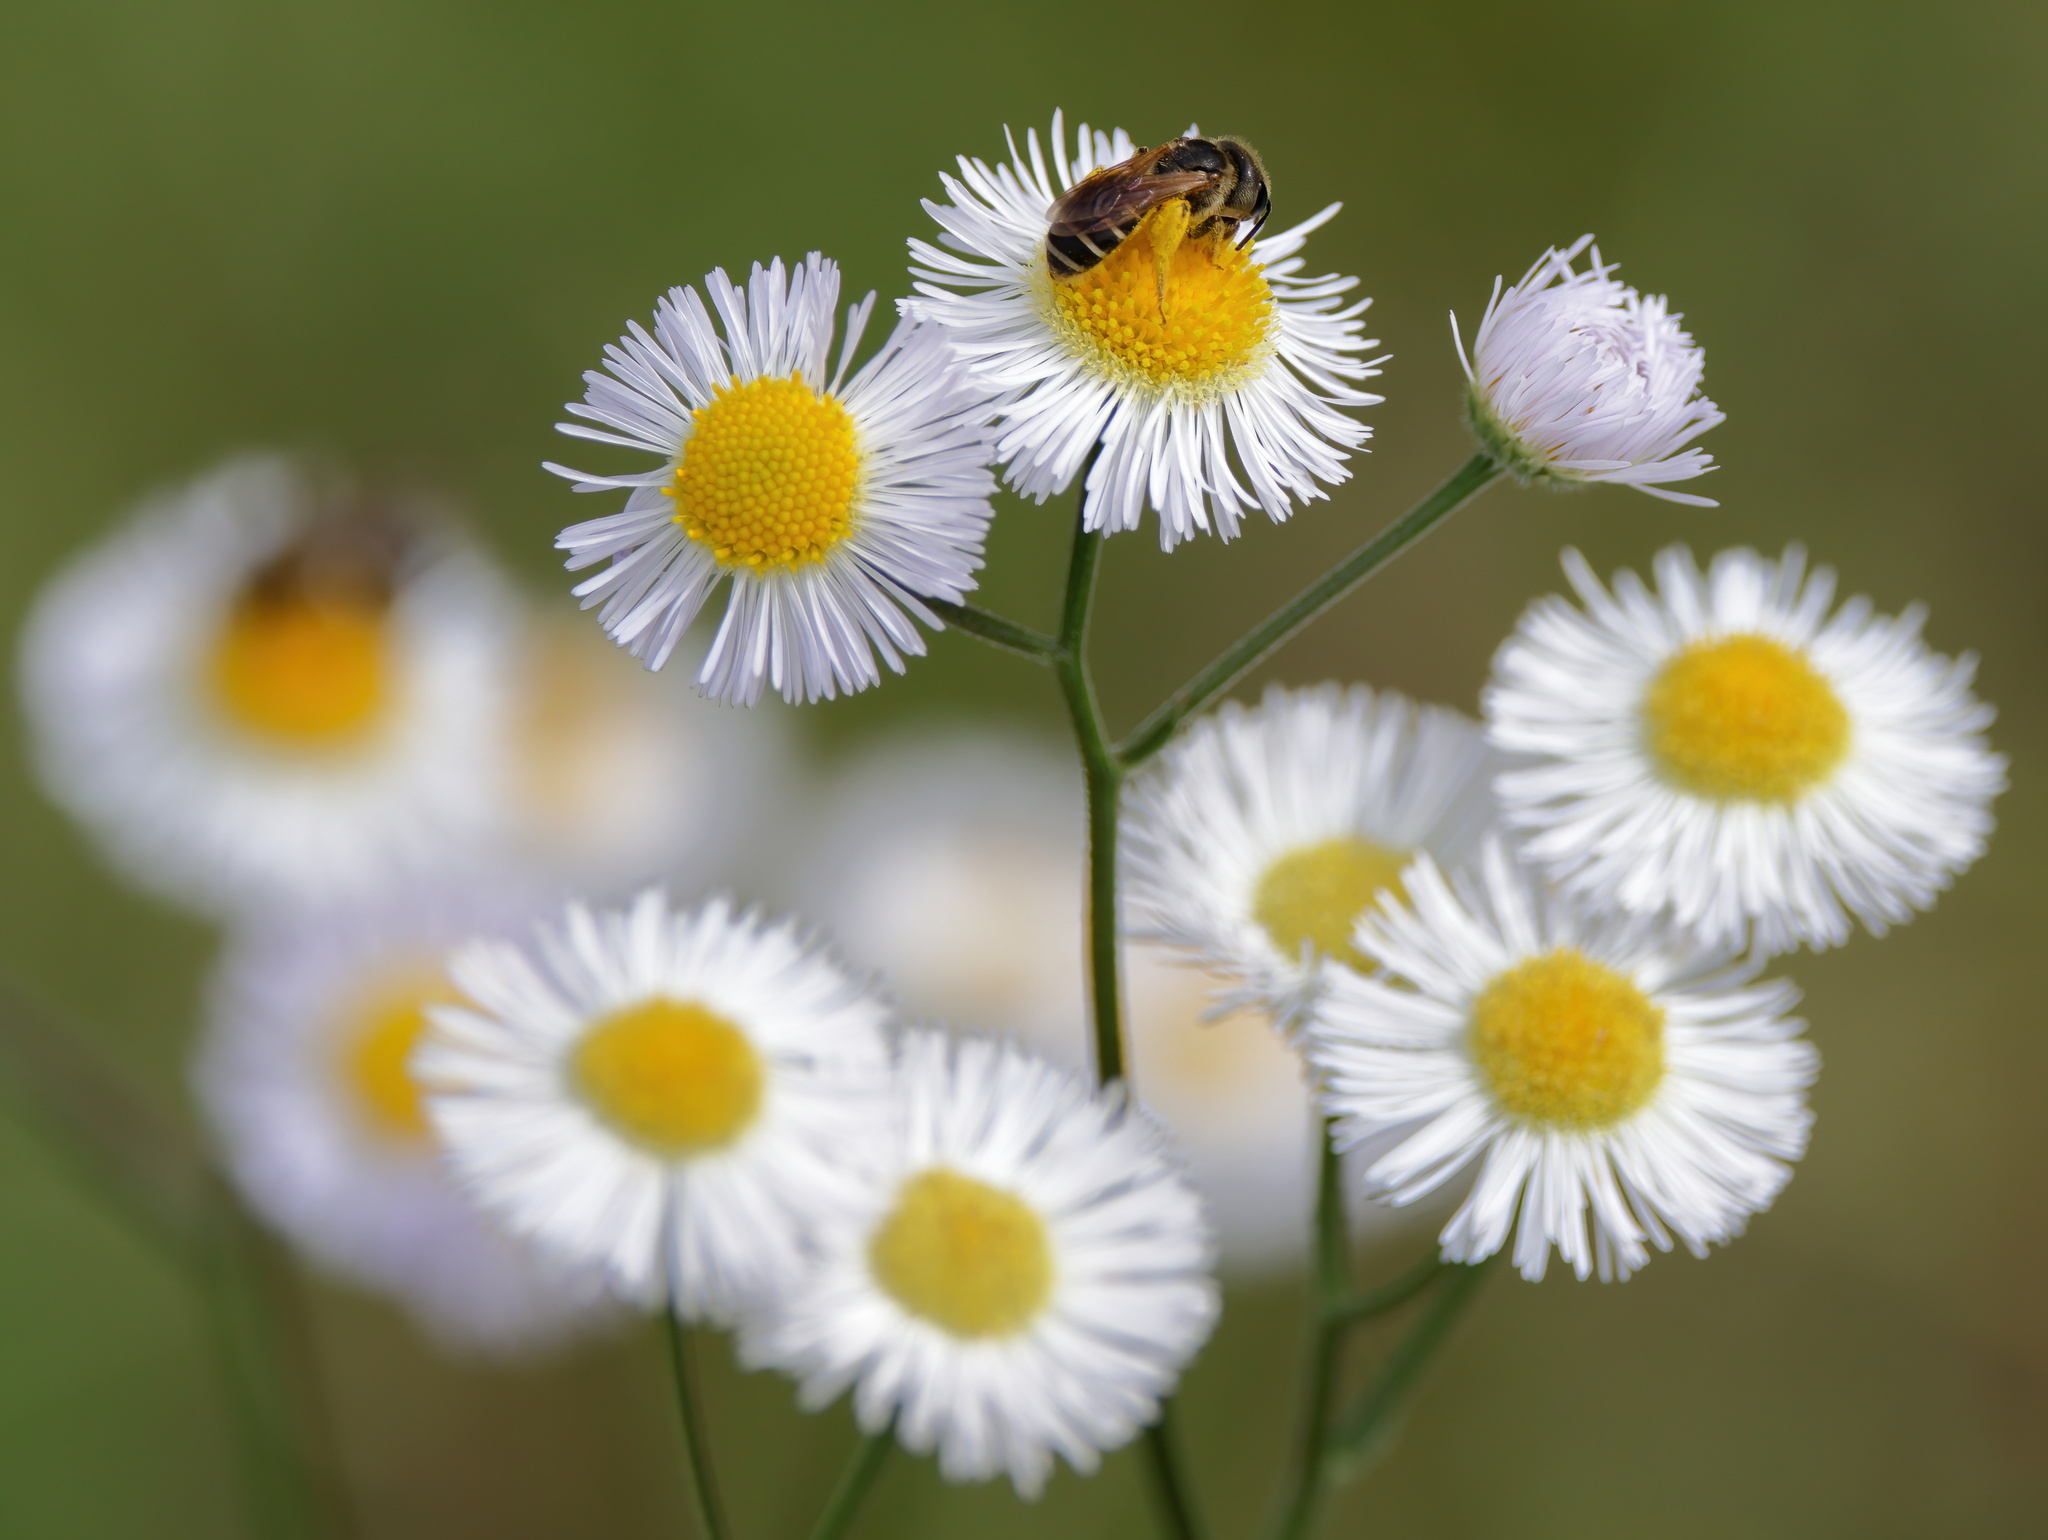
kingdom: Animalia
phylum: Arthropoda
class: Insecta
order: Hymenoptera
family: Halictidae
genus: Halictus
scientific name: Halictus poeyi
